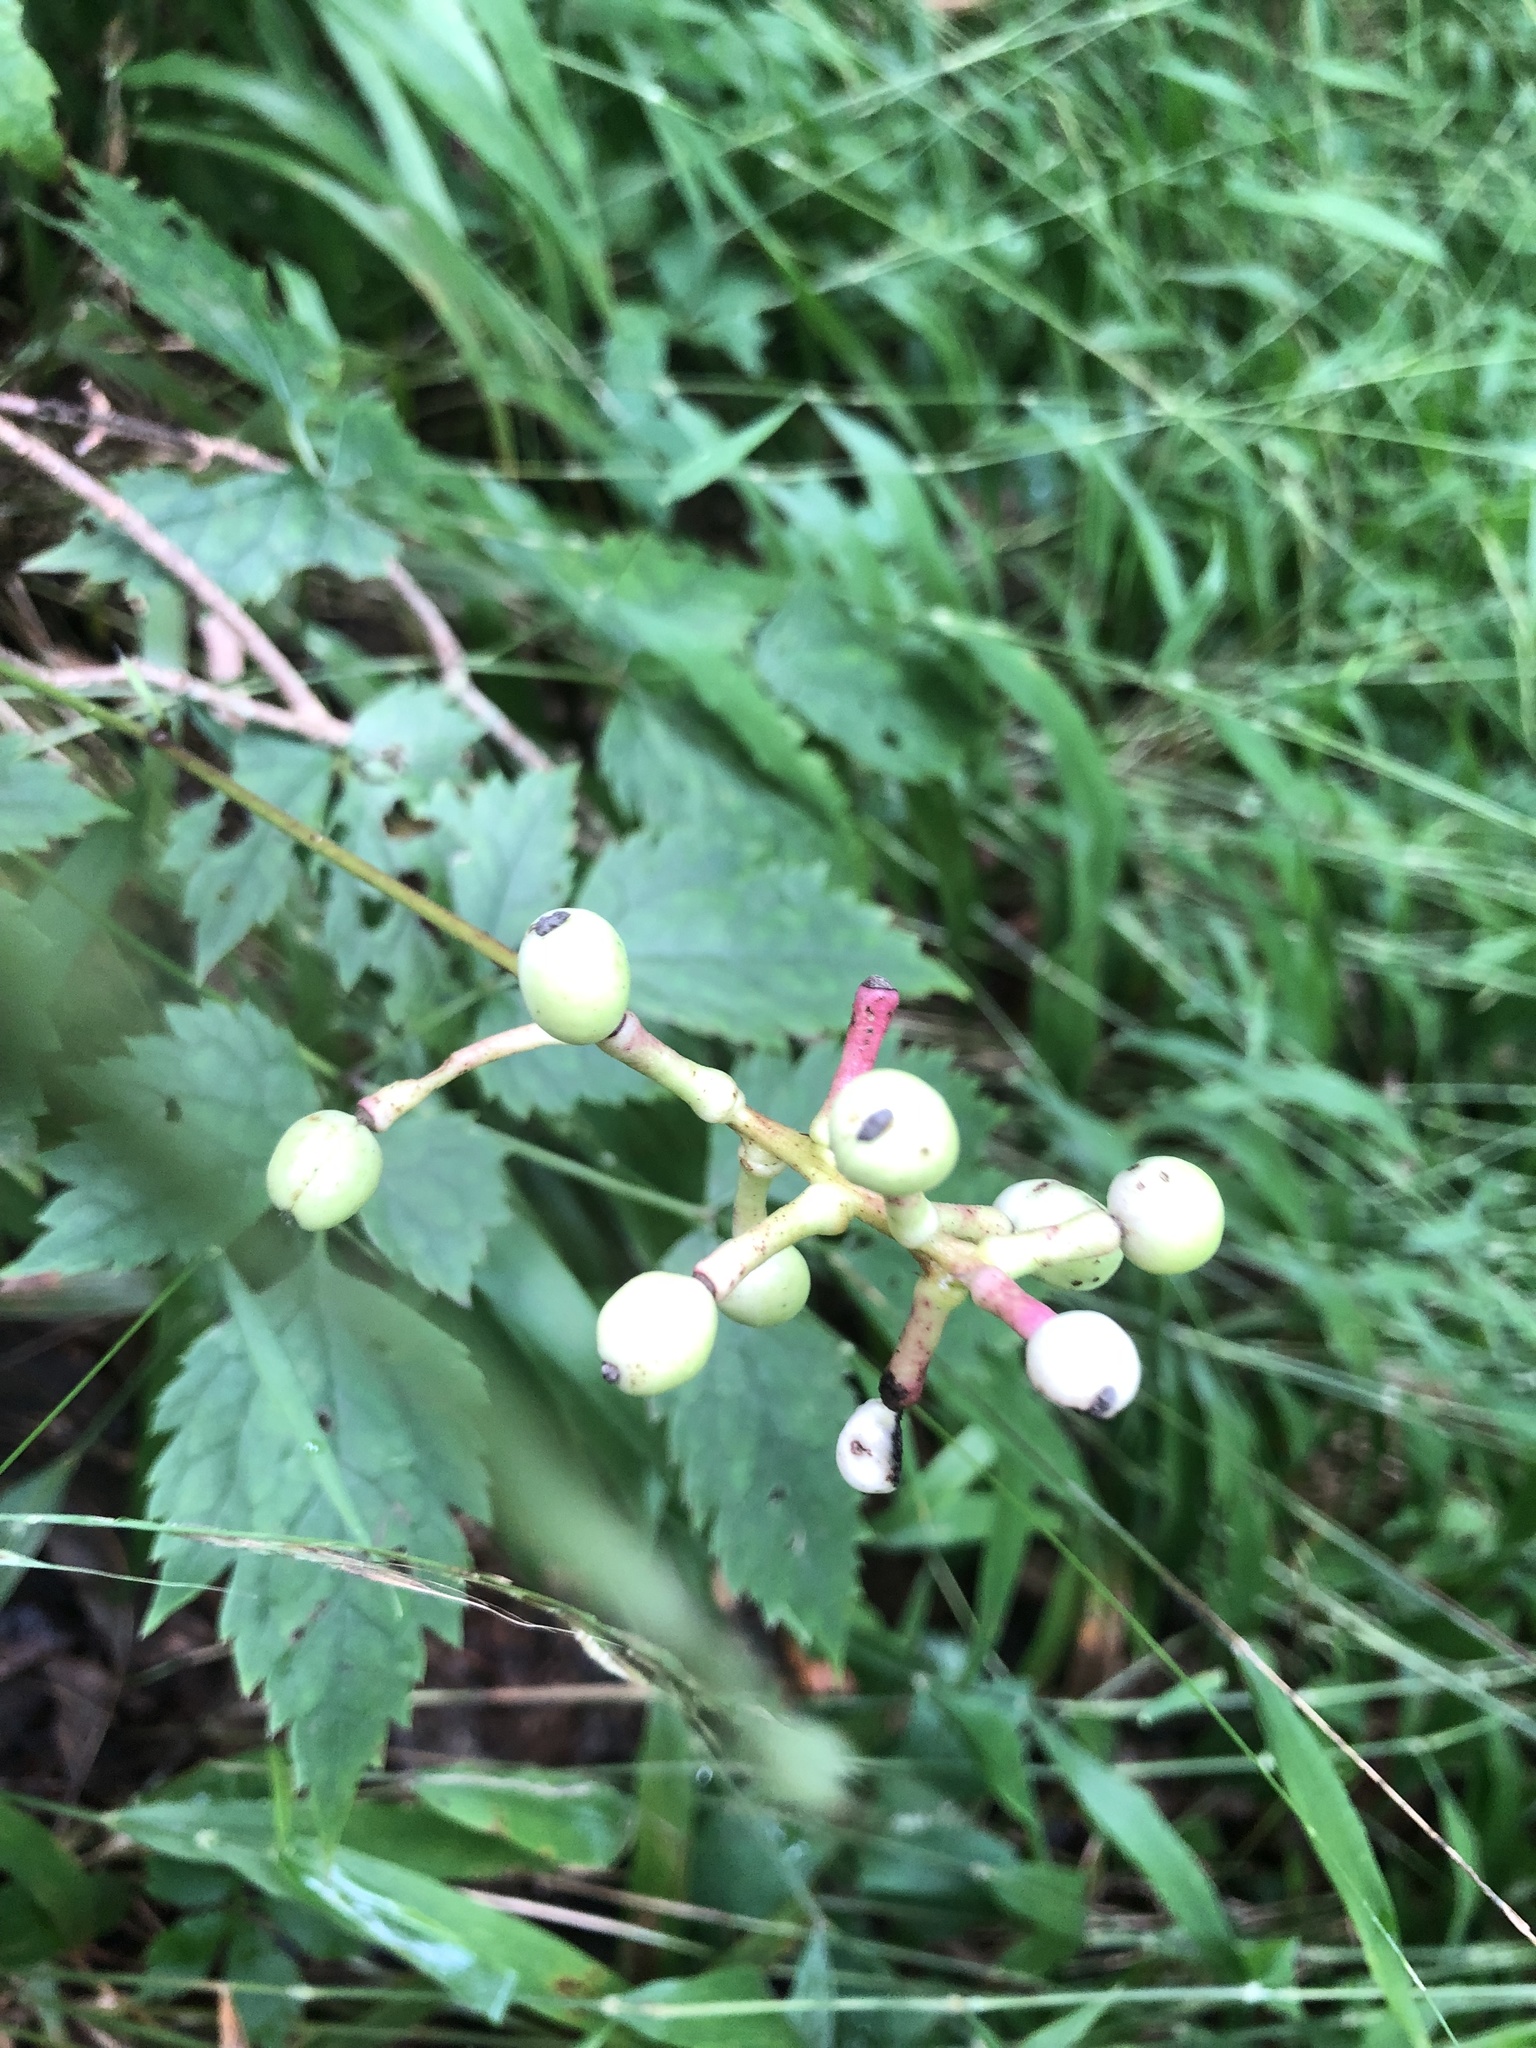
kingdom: Plantae
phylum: Tracheophyta
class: Magnoliopsida
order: Ranunculales
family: Ranunculaceae
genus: Actaea
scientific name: Actaea pachypoda
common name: Doll's-eyes
